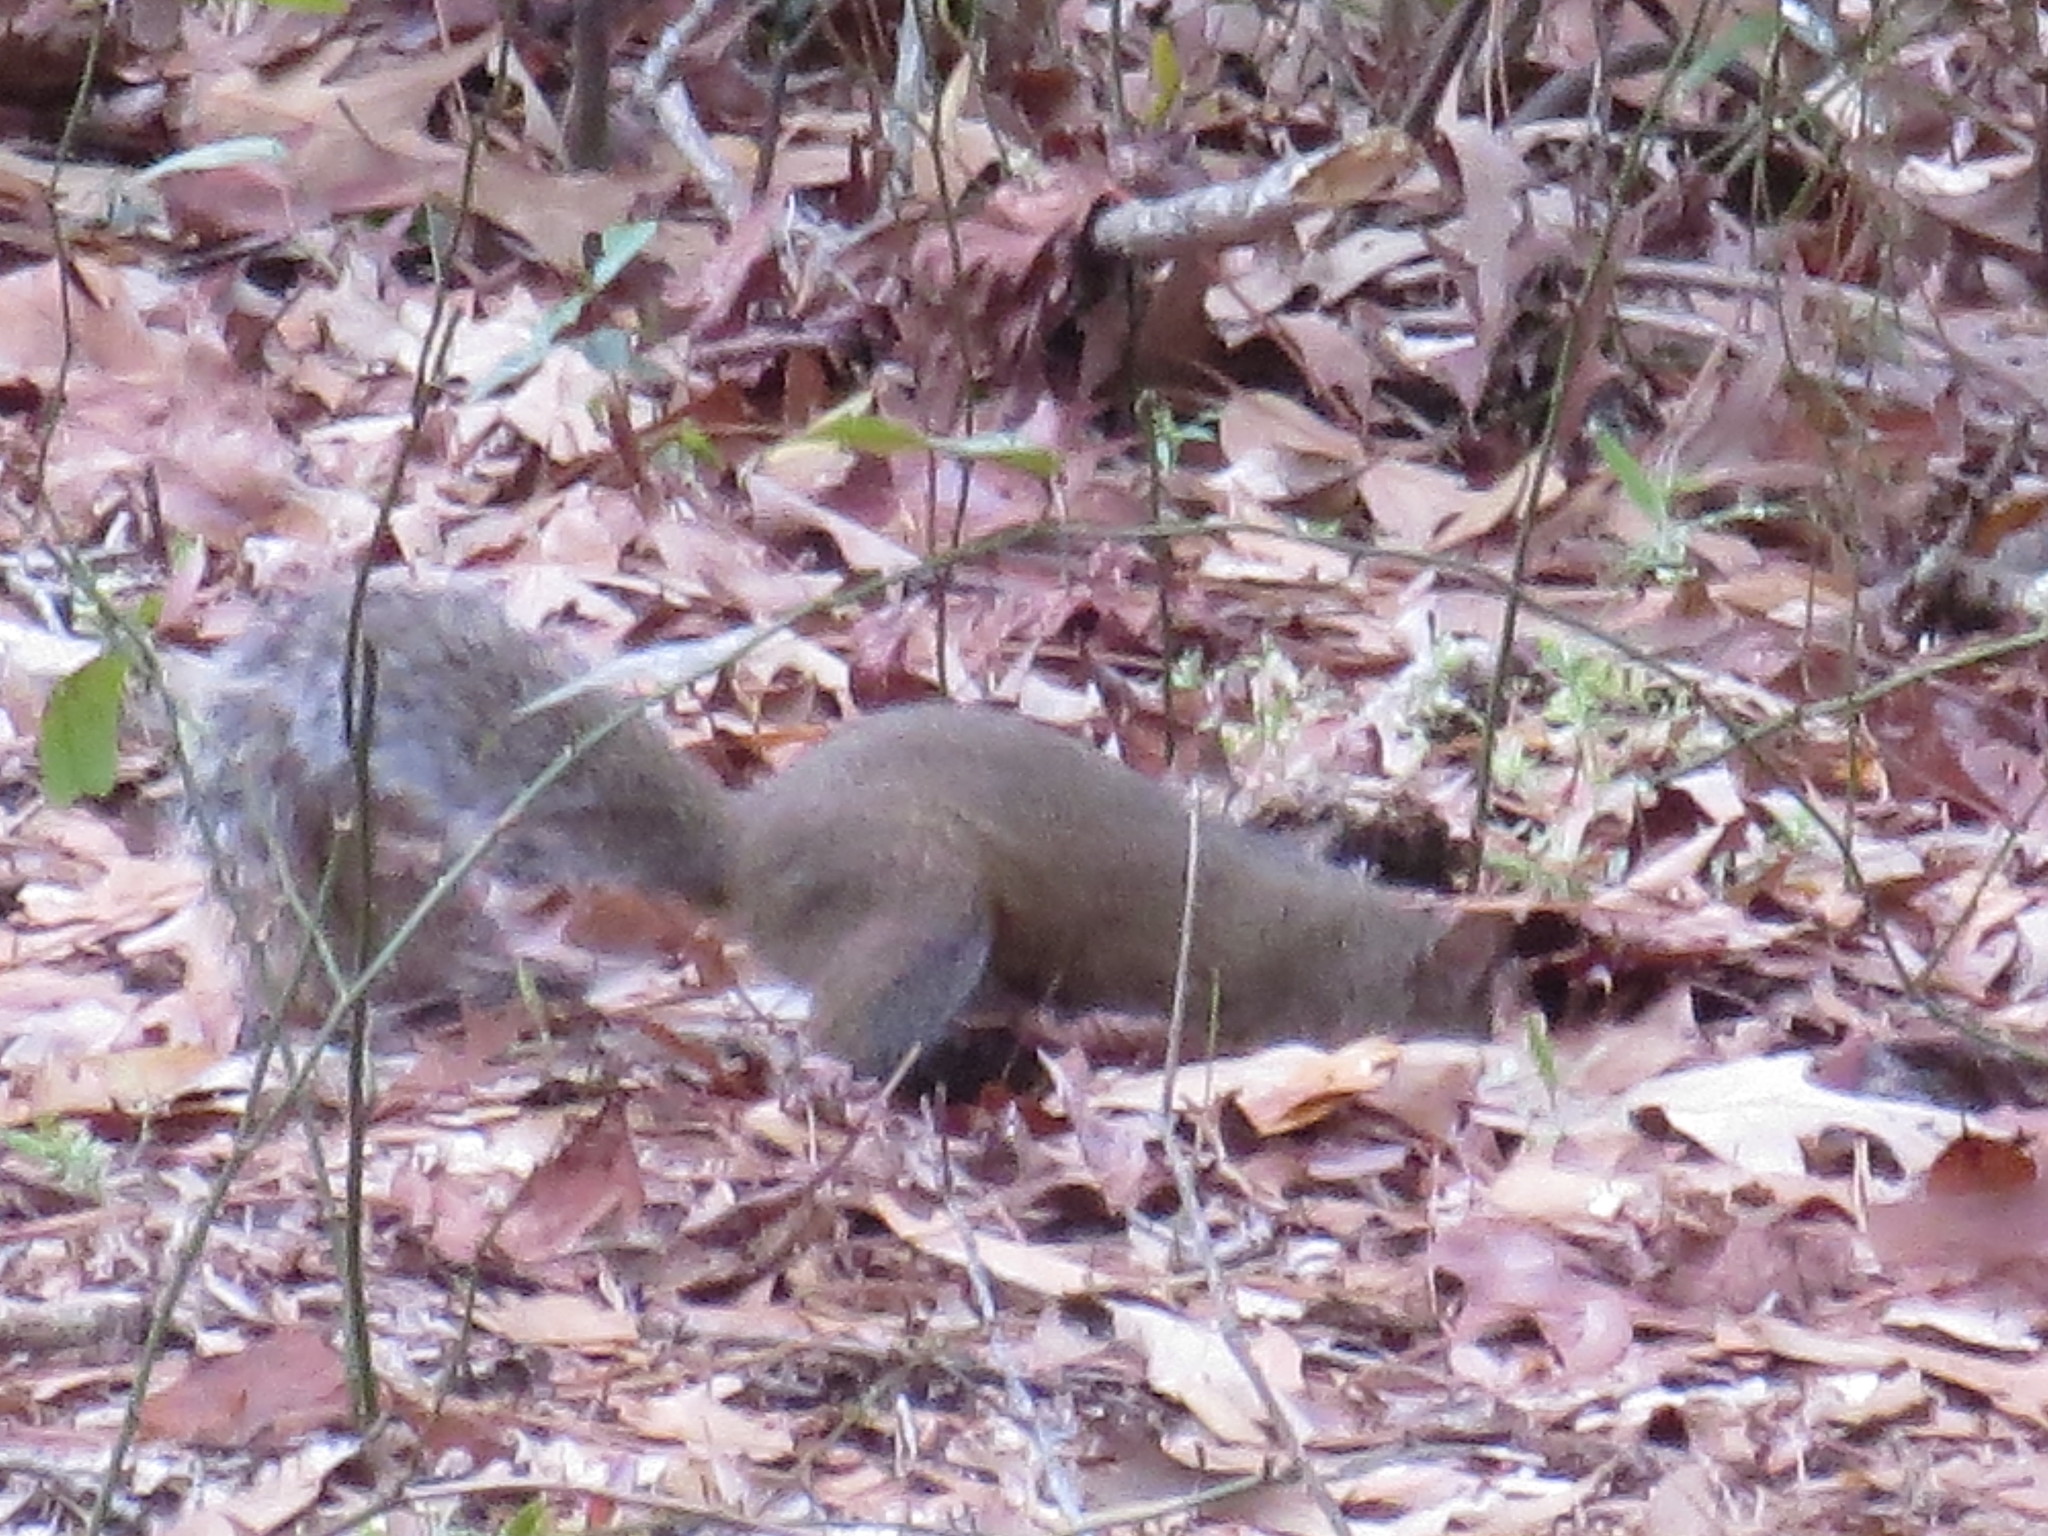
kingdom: Animalia
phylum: Chordata
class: Mammalia
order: Rodentia
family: Sciuridae
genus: Sciurus
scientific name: Sciurus carolinensis
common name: Eastern gray squirrel
